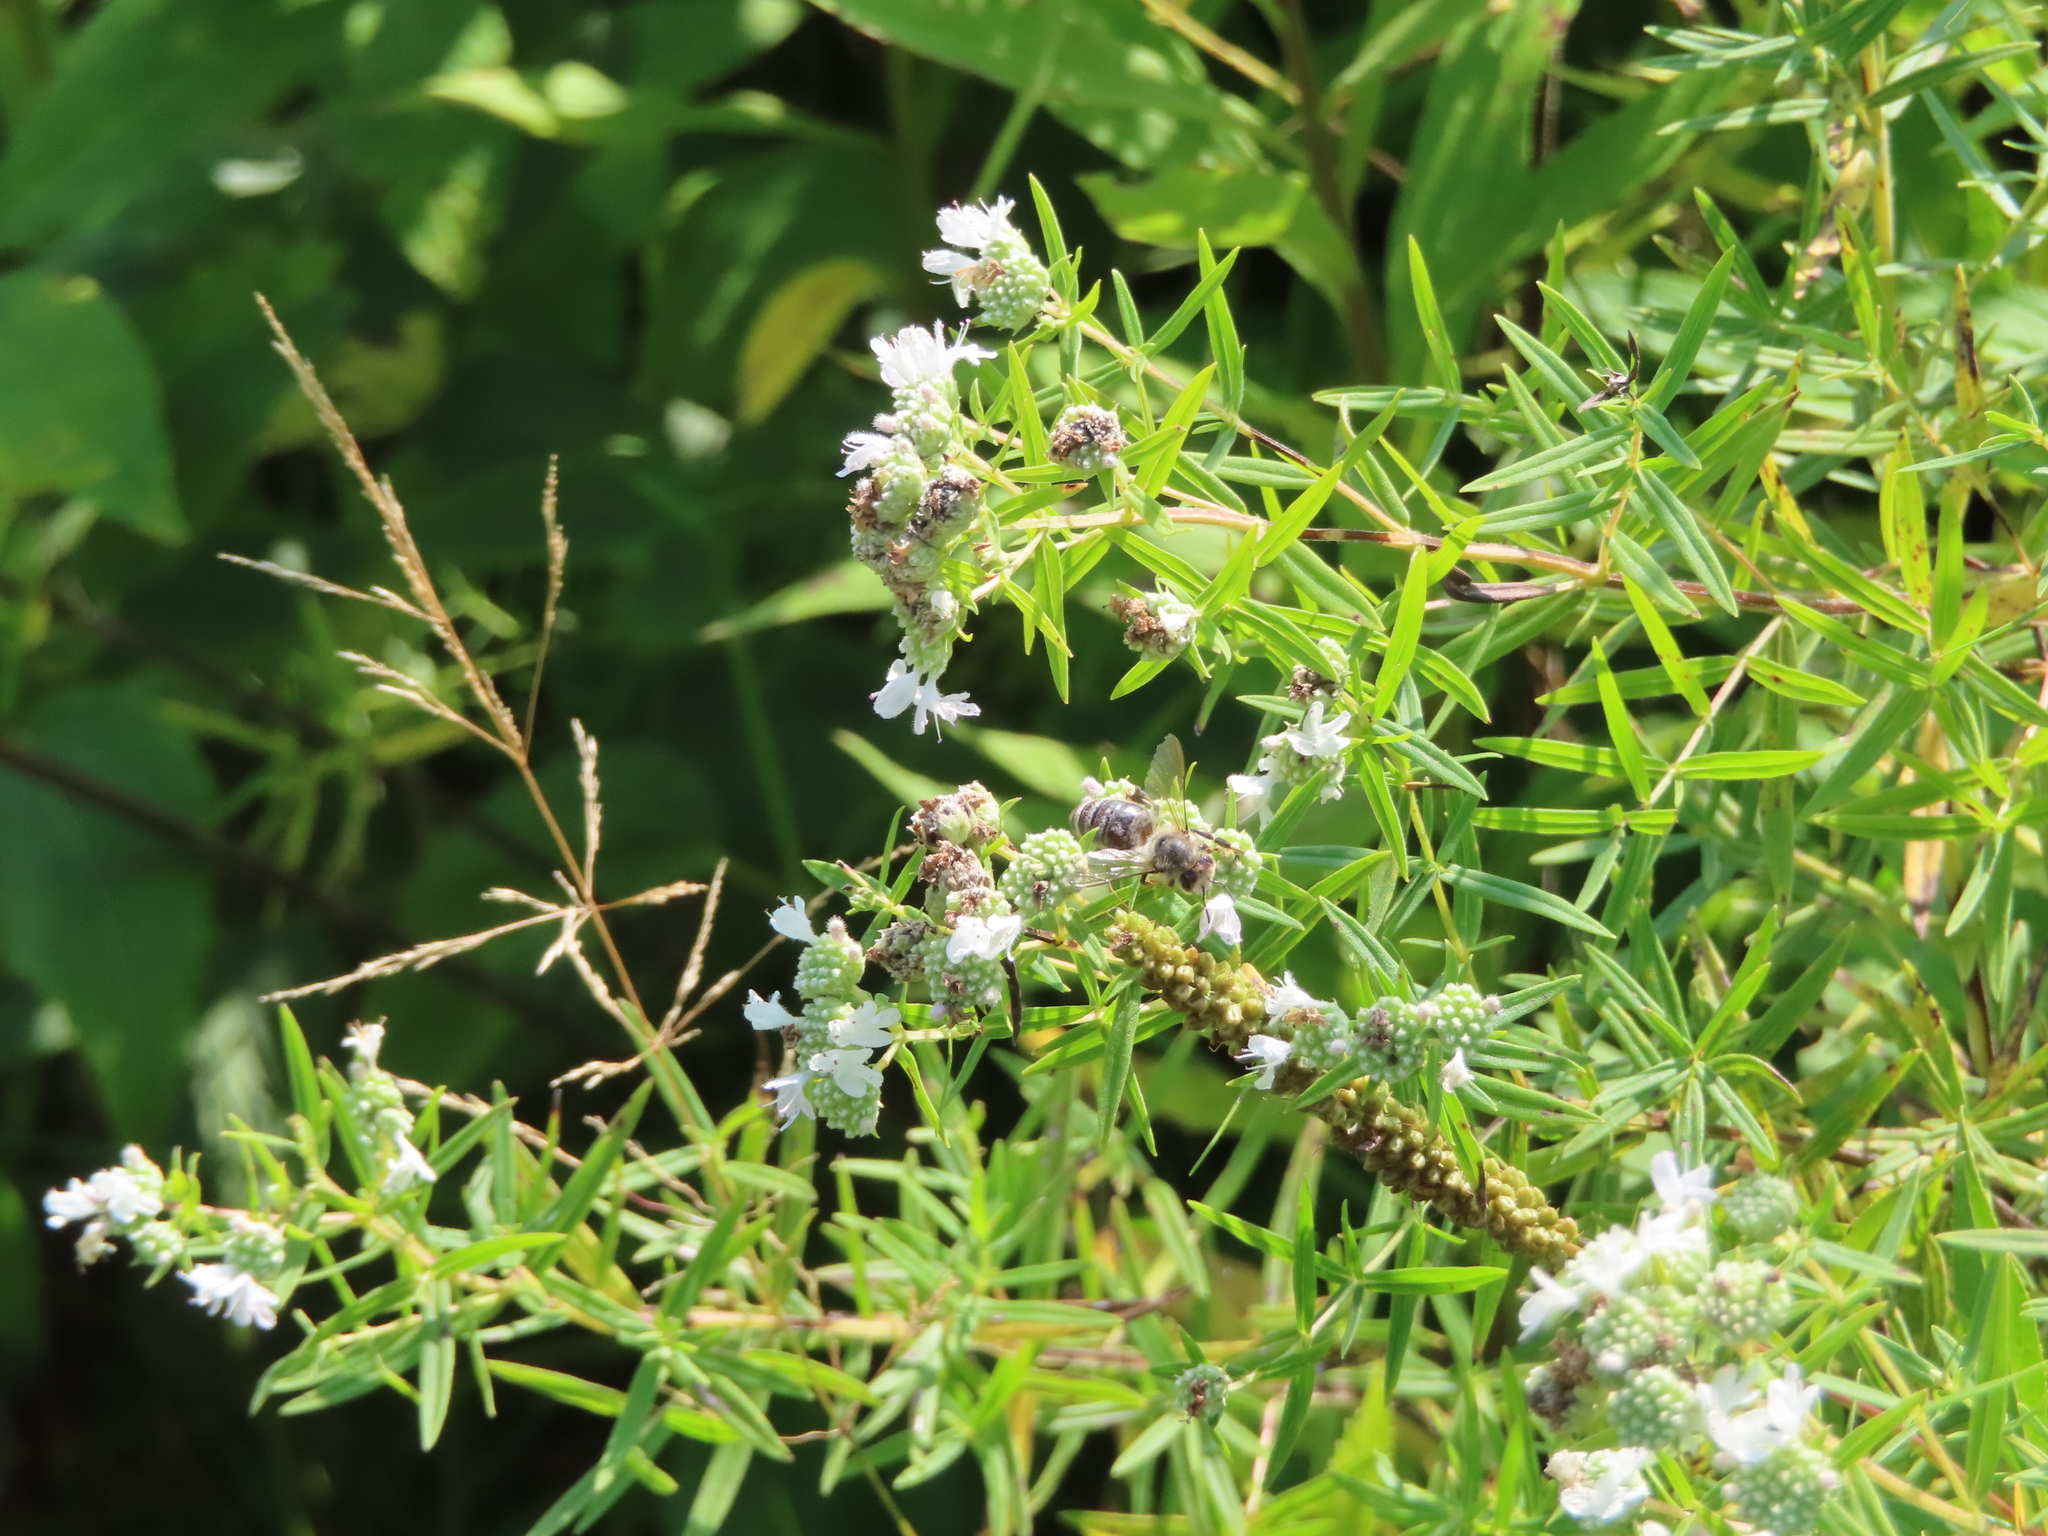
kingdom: Plantae
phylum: Tracheophyta
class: Magnoliopsida
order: Lamiales
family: Lamiaceae
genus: Pycnanthemum
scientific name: Pycnanthemum virginianum
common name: Virginia mountain-mint
